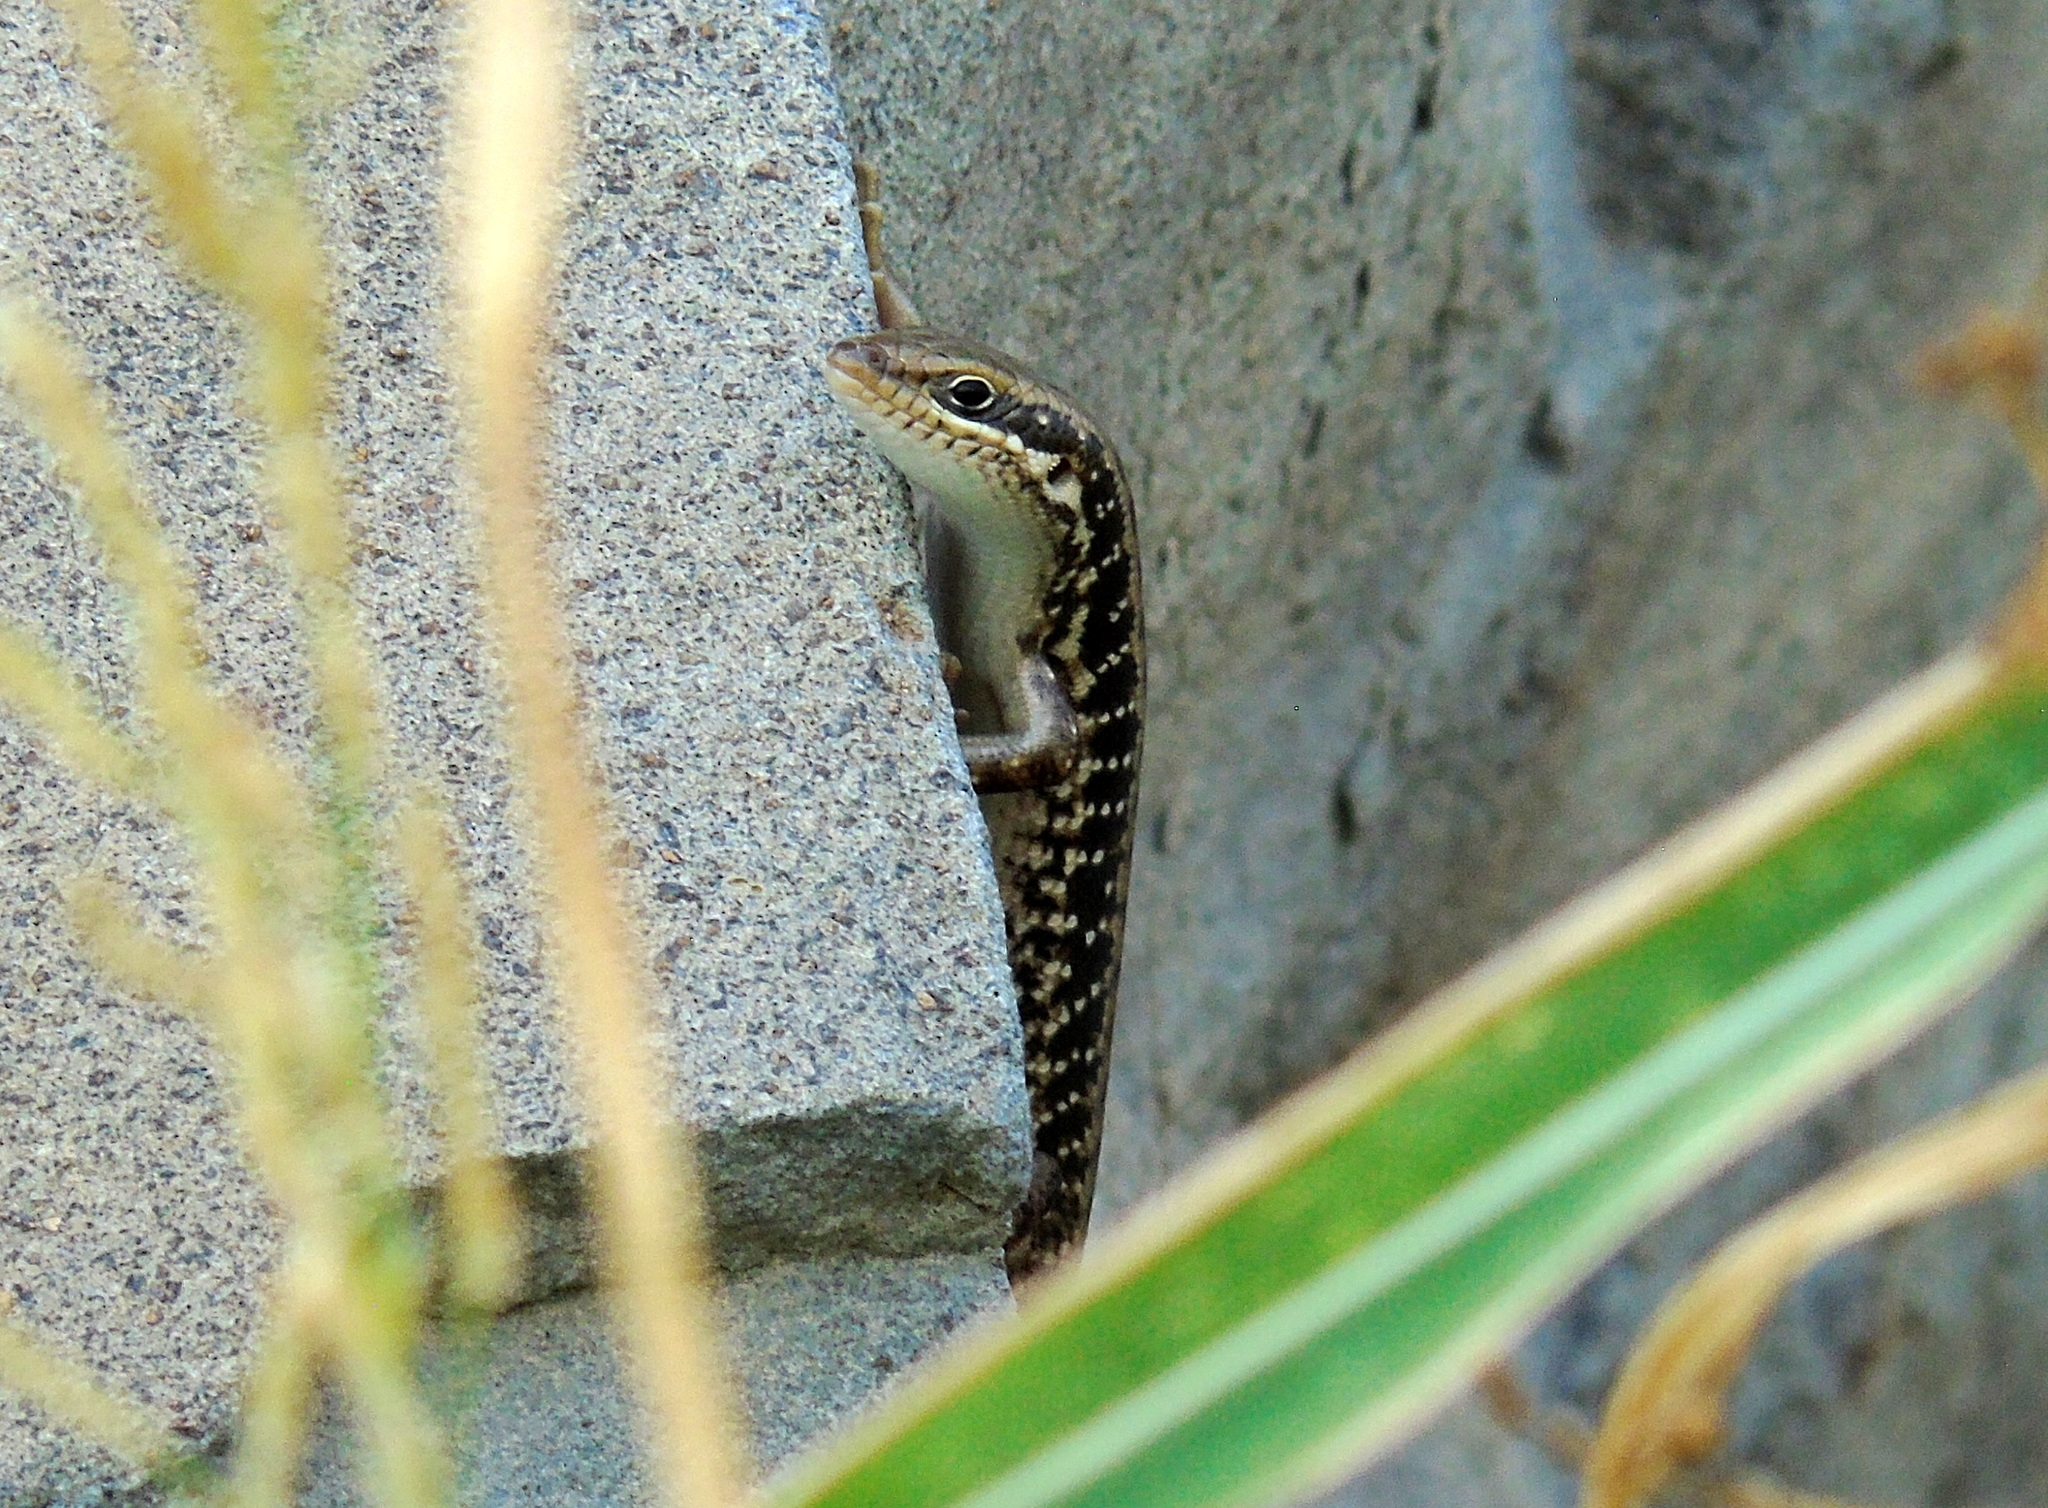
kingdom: Animalia
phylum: Chordata
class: Squamata
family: Scincidae
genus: Heremites
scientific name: Heremites auratus
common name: Golden grass mabuya
